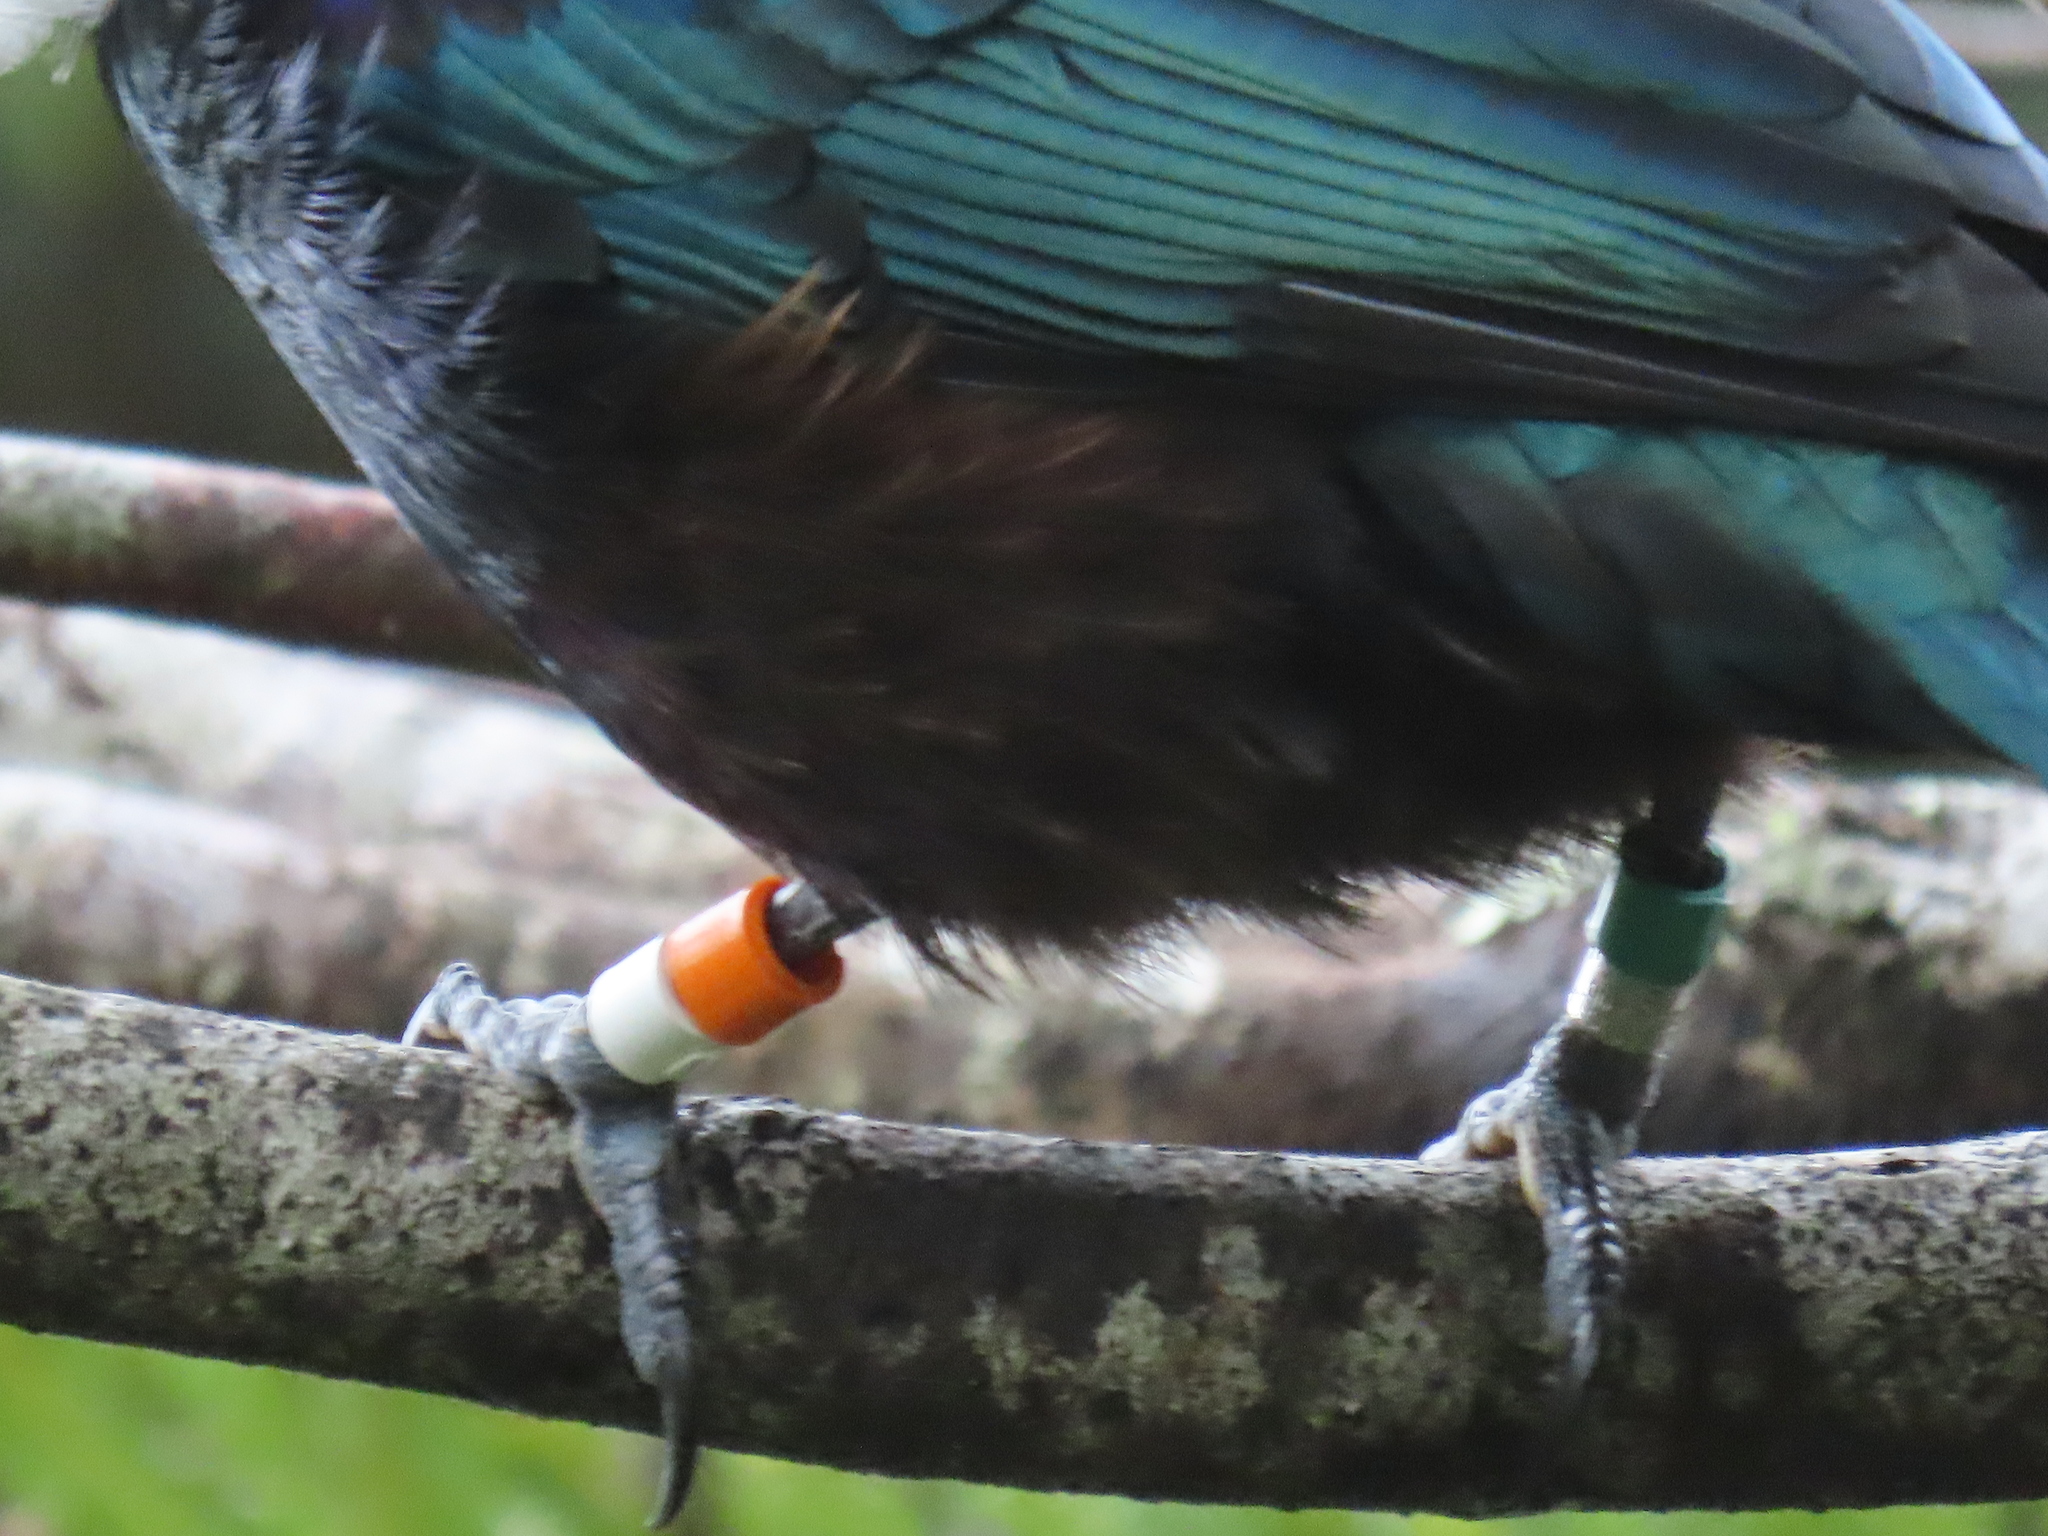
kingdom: Animalia
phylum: Chordata
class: Aves
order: Passeriformes
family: Meliphagidae
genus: Prosthemadera
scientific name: Prosthemadera novaeseelandiae
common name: Tui
